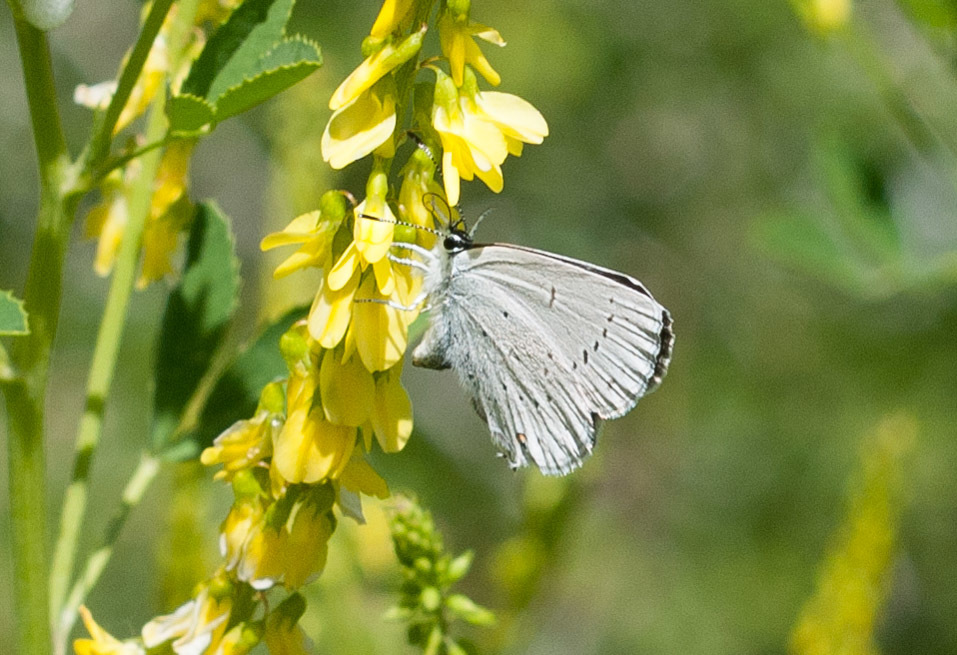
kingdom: Animalia
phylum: Arthropoda
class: Insecta
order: Lepidoptera
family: Lycaenidae
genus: Elkalyce
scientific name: Elkalyce amyntula
